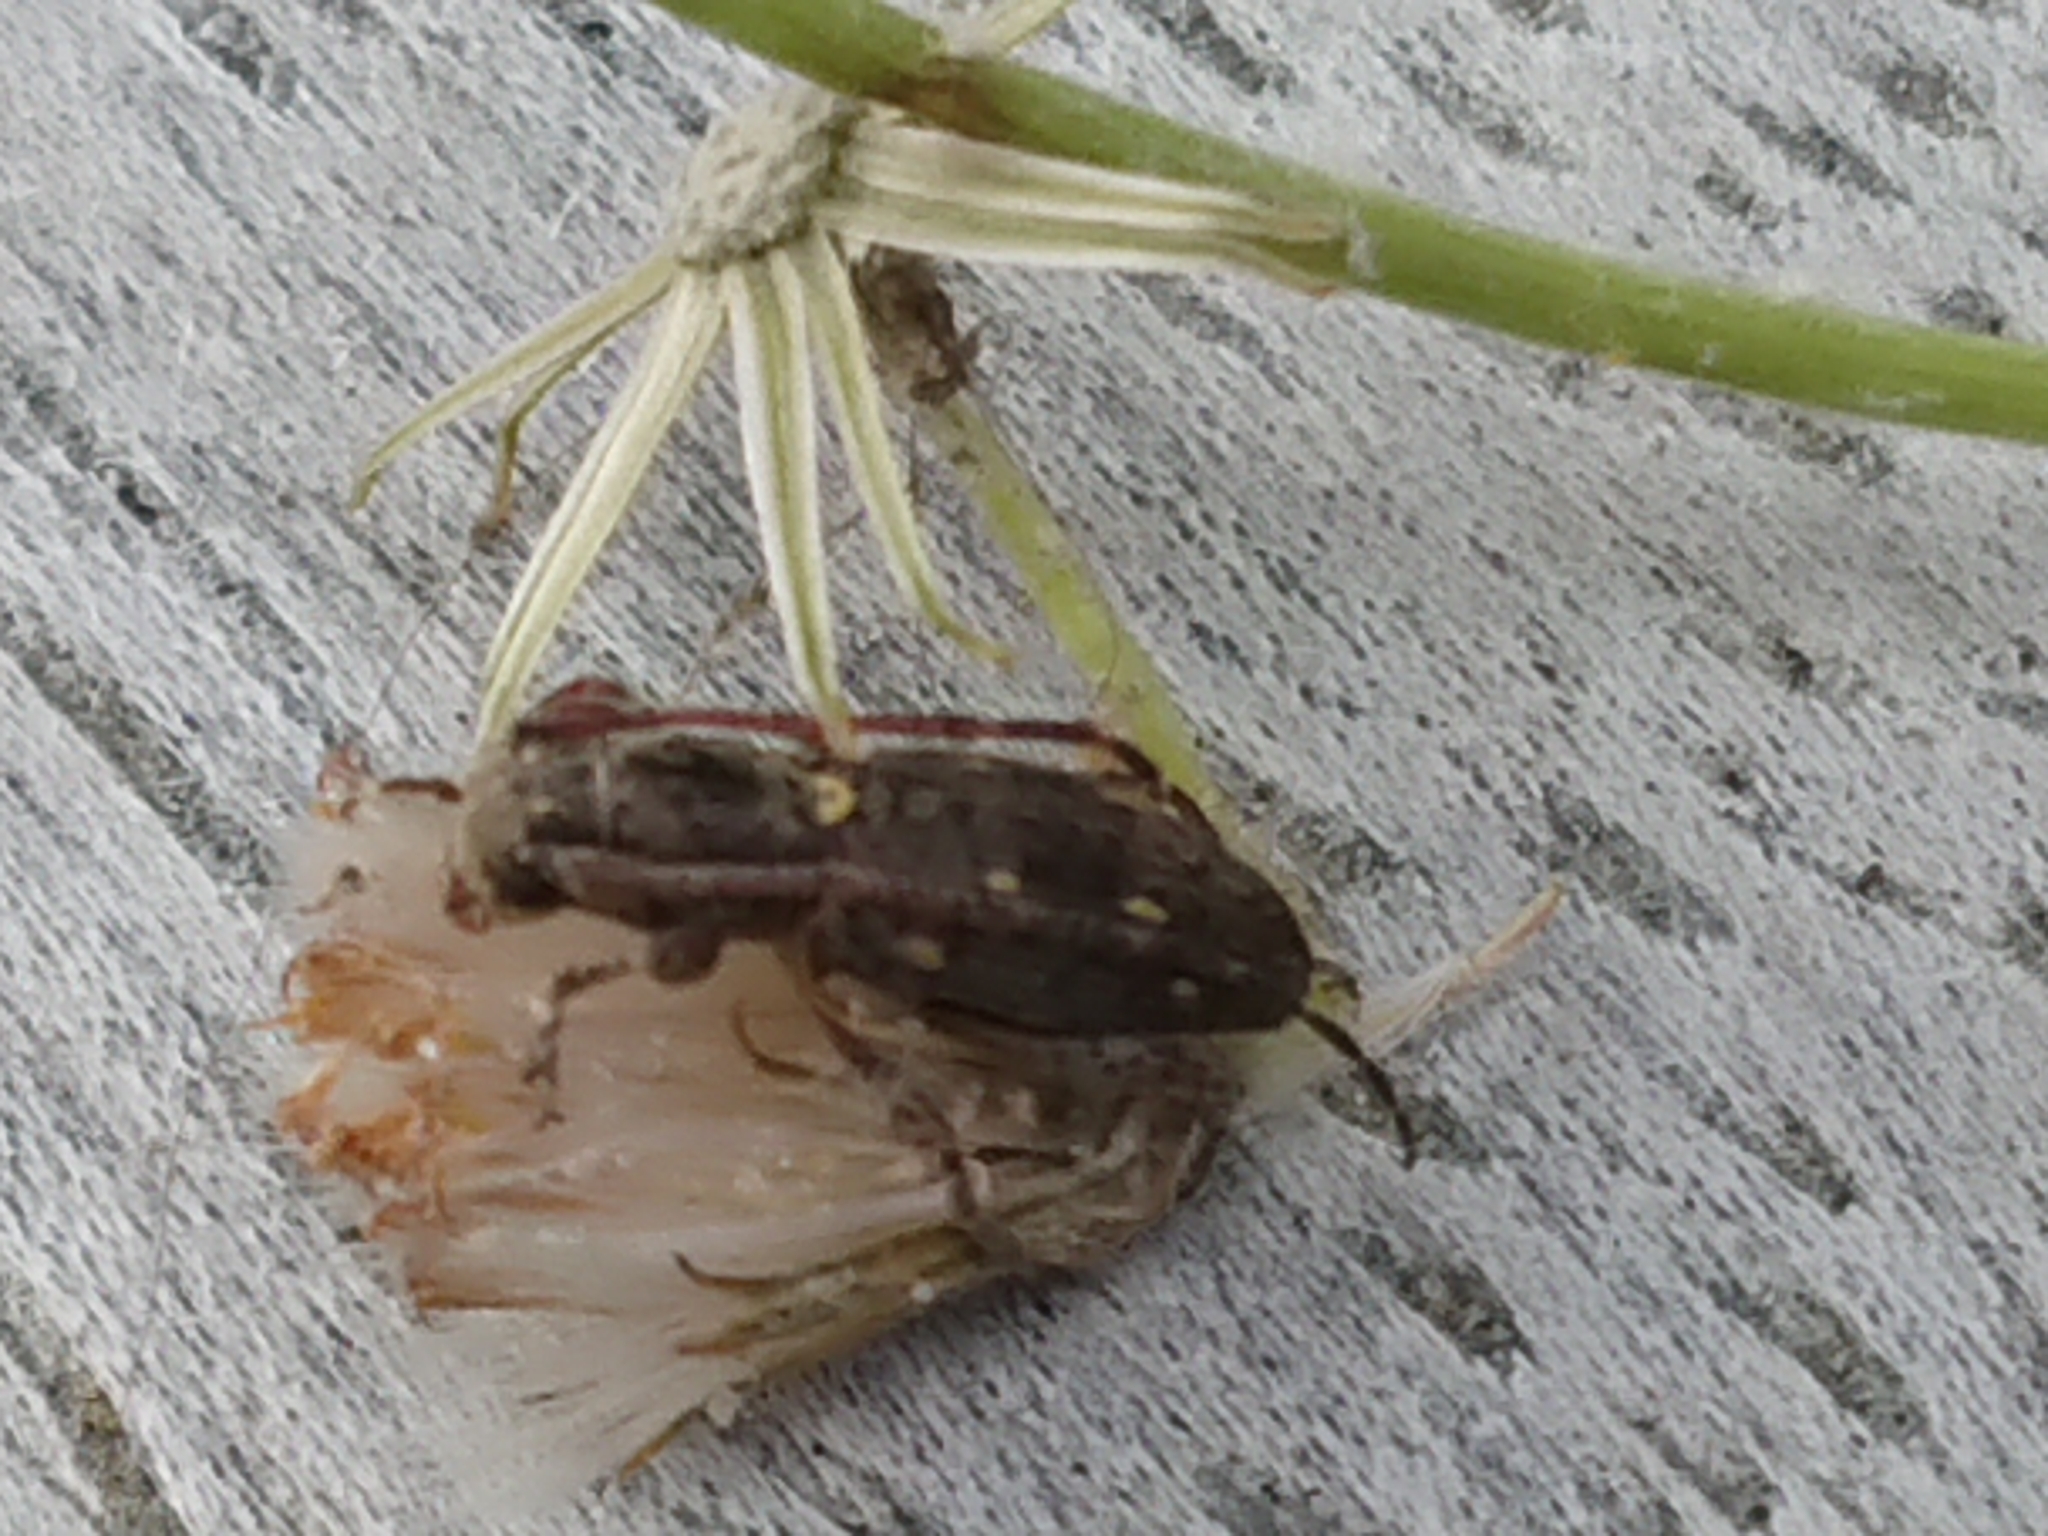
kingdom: Animalia
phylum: Arthropoda
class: Insecta
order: Coleoptera
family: Cerambycidae
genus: Xylotoles
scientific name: Xylotoles griseus
